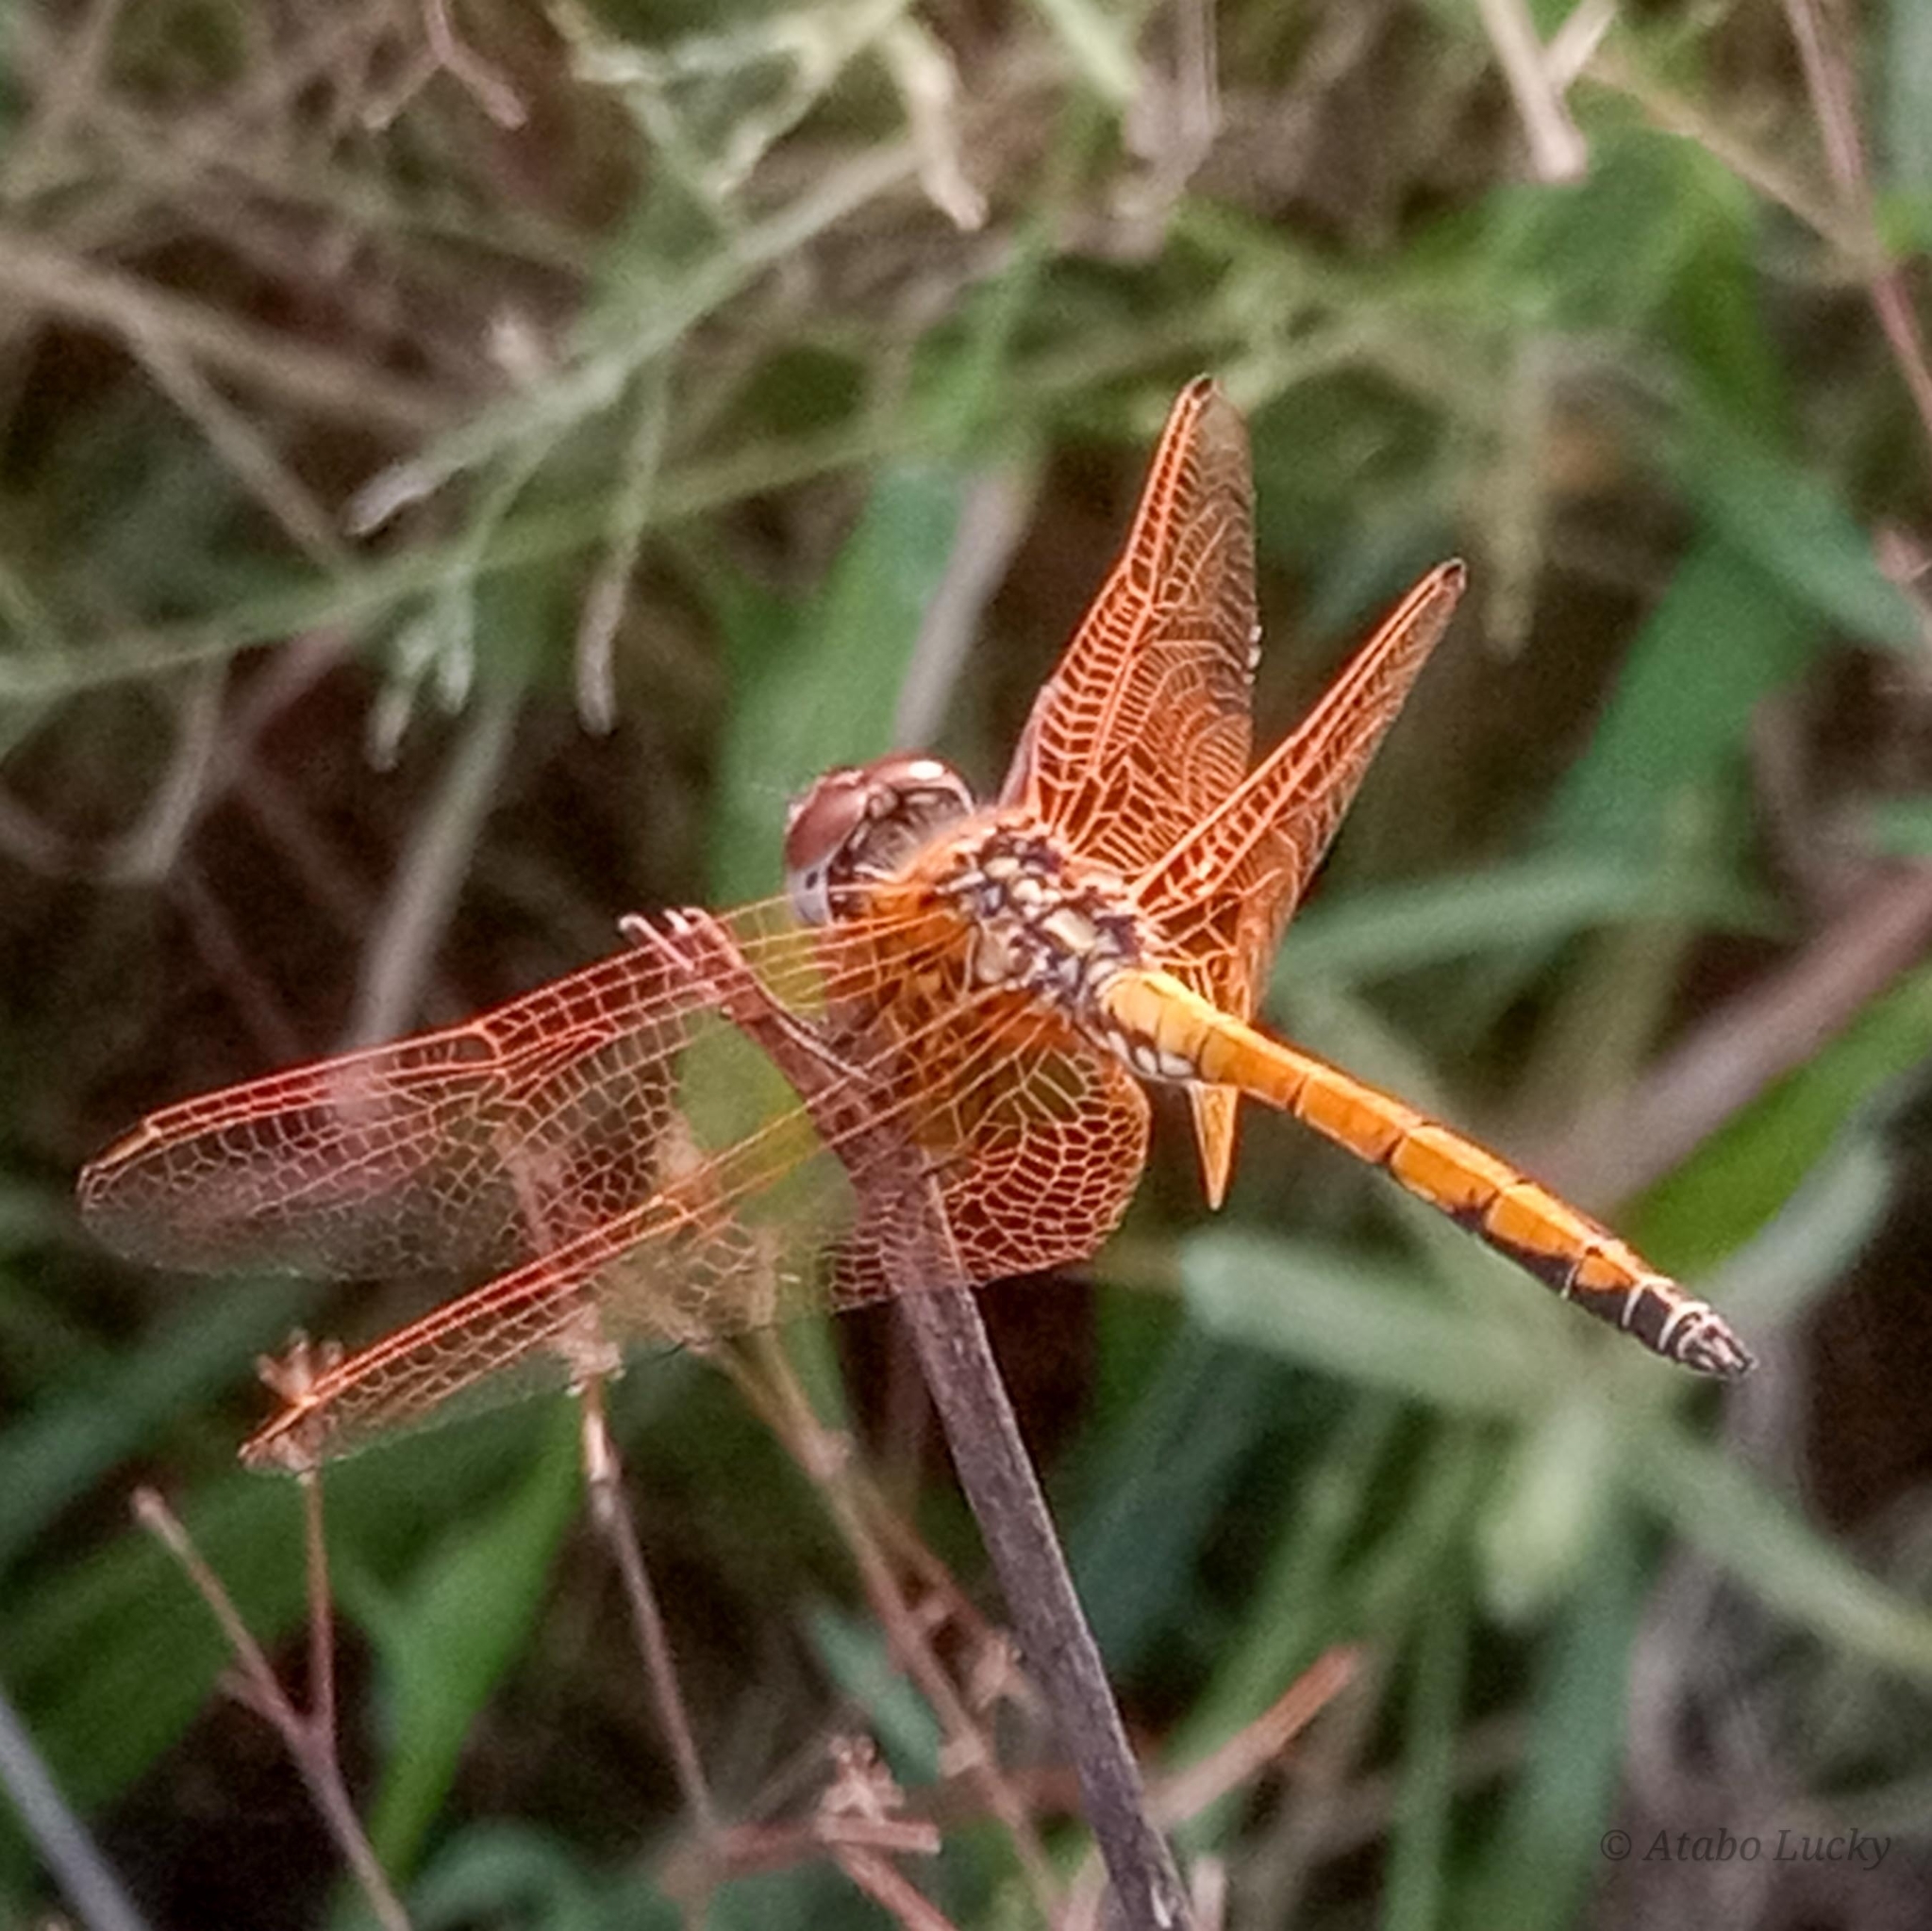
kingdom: Animalia
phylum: Arthropoda
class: Insecta
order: Odonata
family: Libellulidae
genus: Trithemis
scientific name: Trithemis arteriosa
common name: Red-veined dropwing
